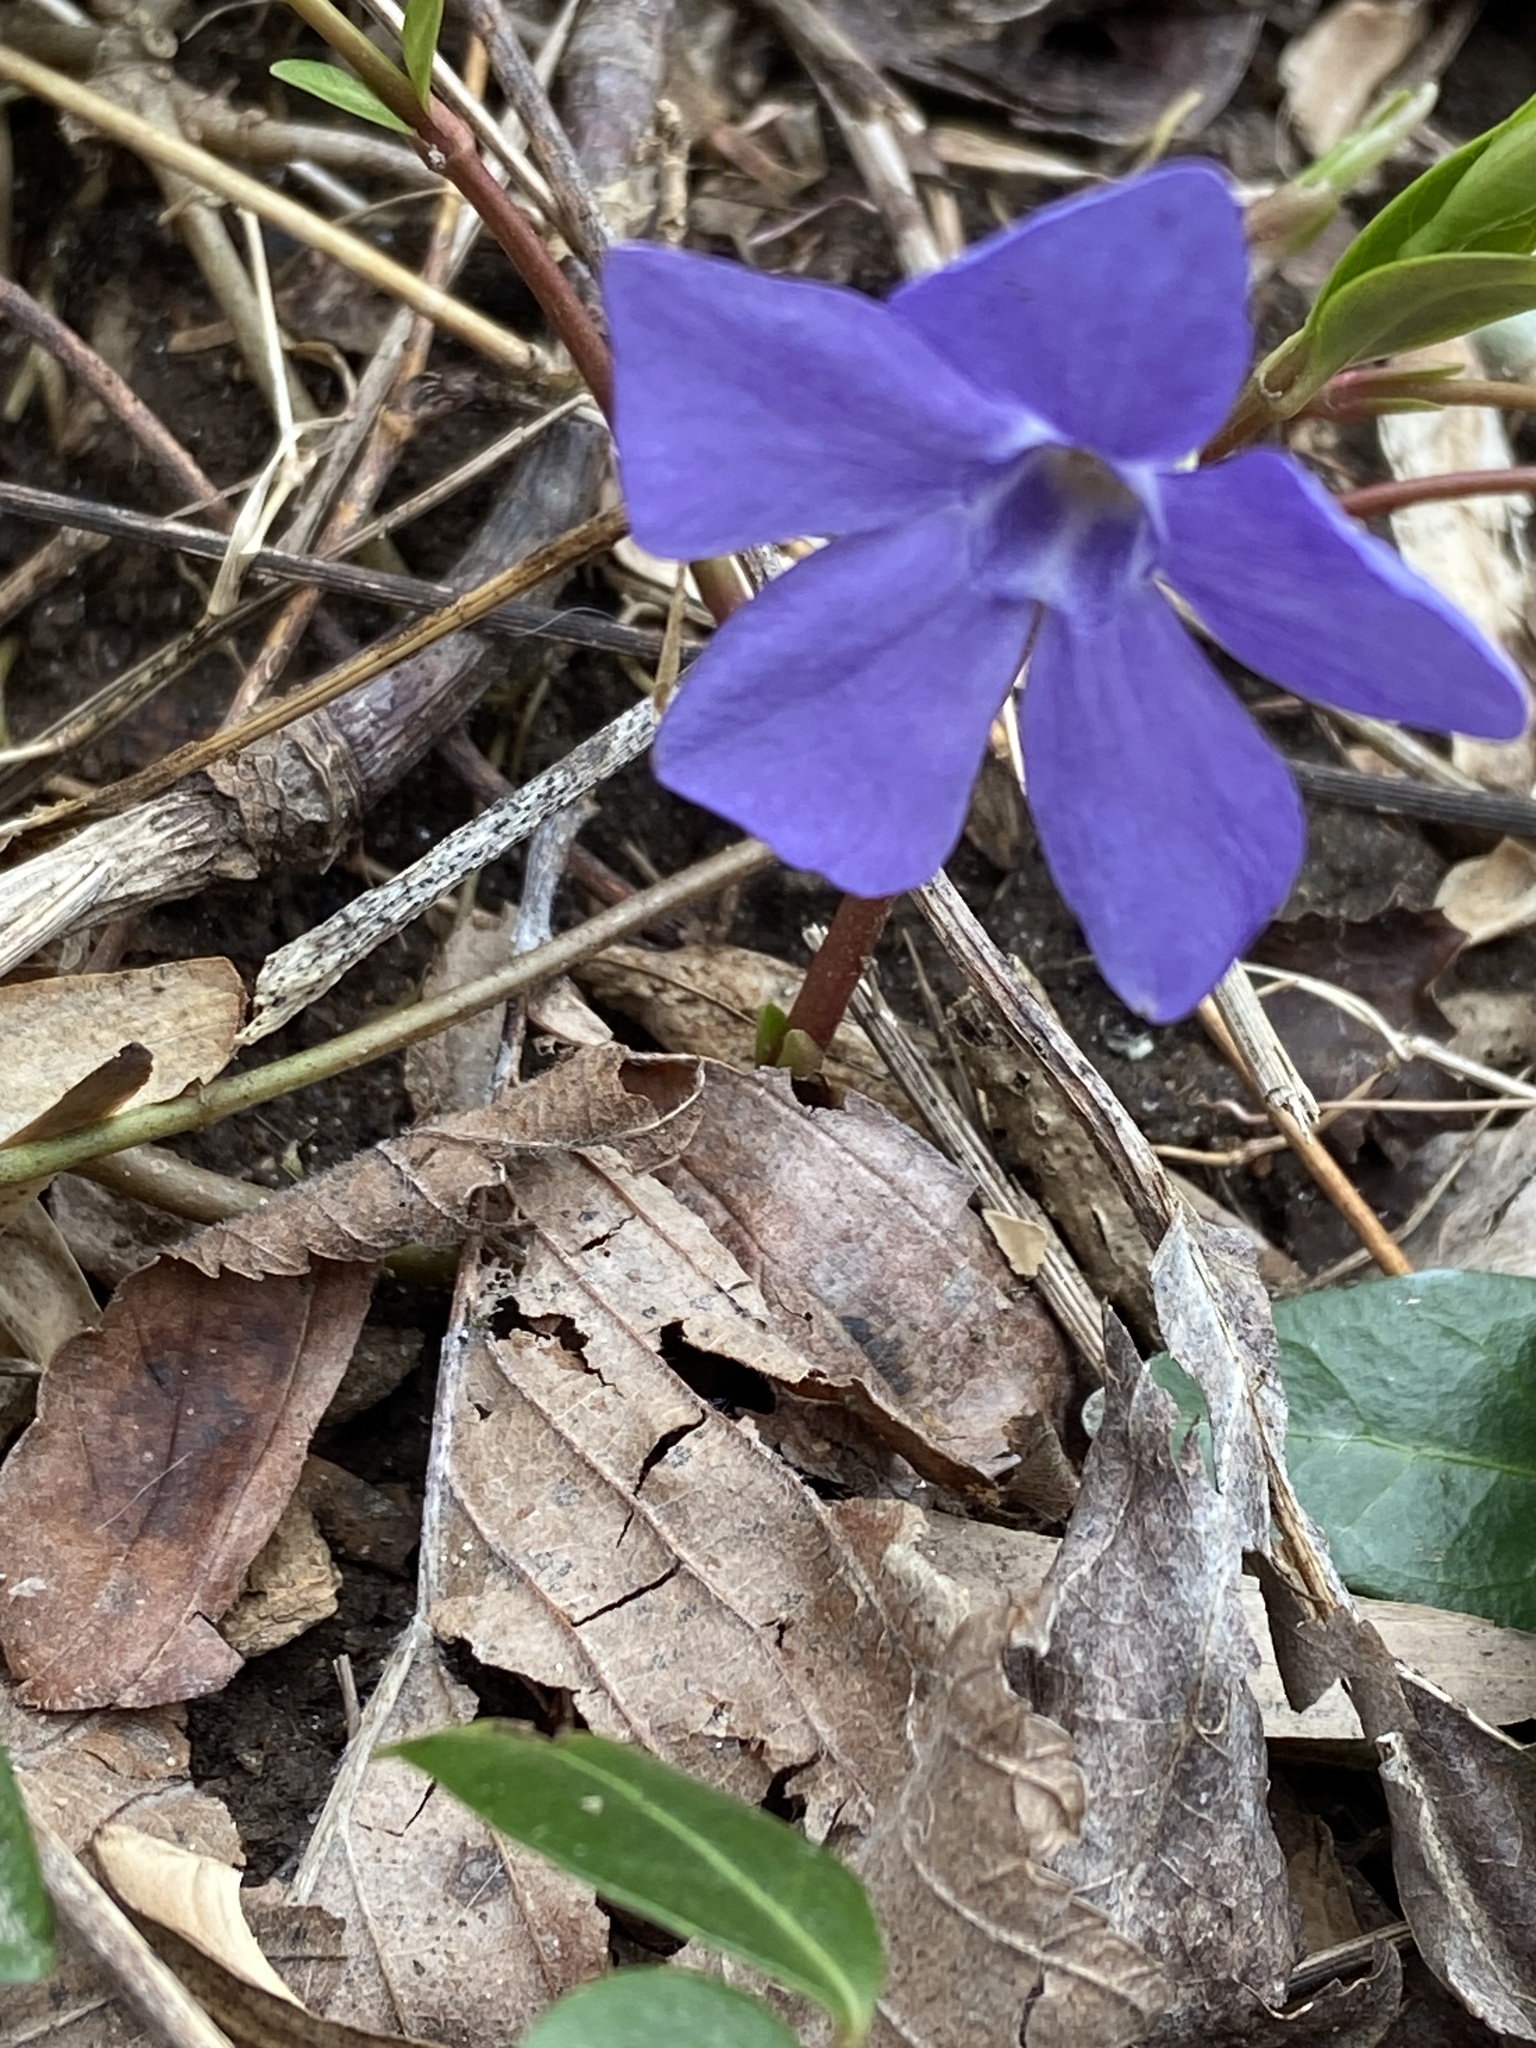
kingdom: Plantae
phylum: Tracheophyta
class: Magnoliopsida
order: Gentianales
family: Apocynaceae
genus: Vinca
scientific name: Vinca minor
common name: Lesser periwinkle
